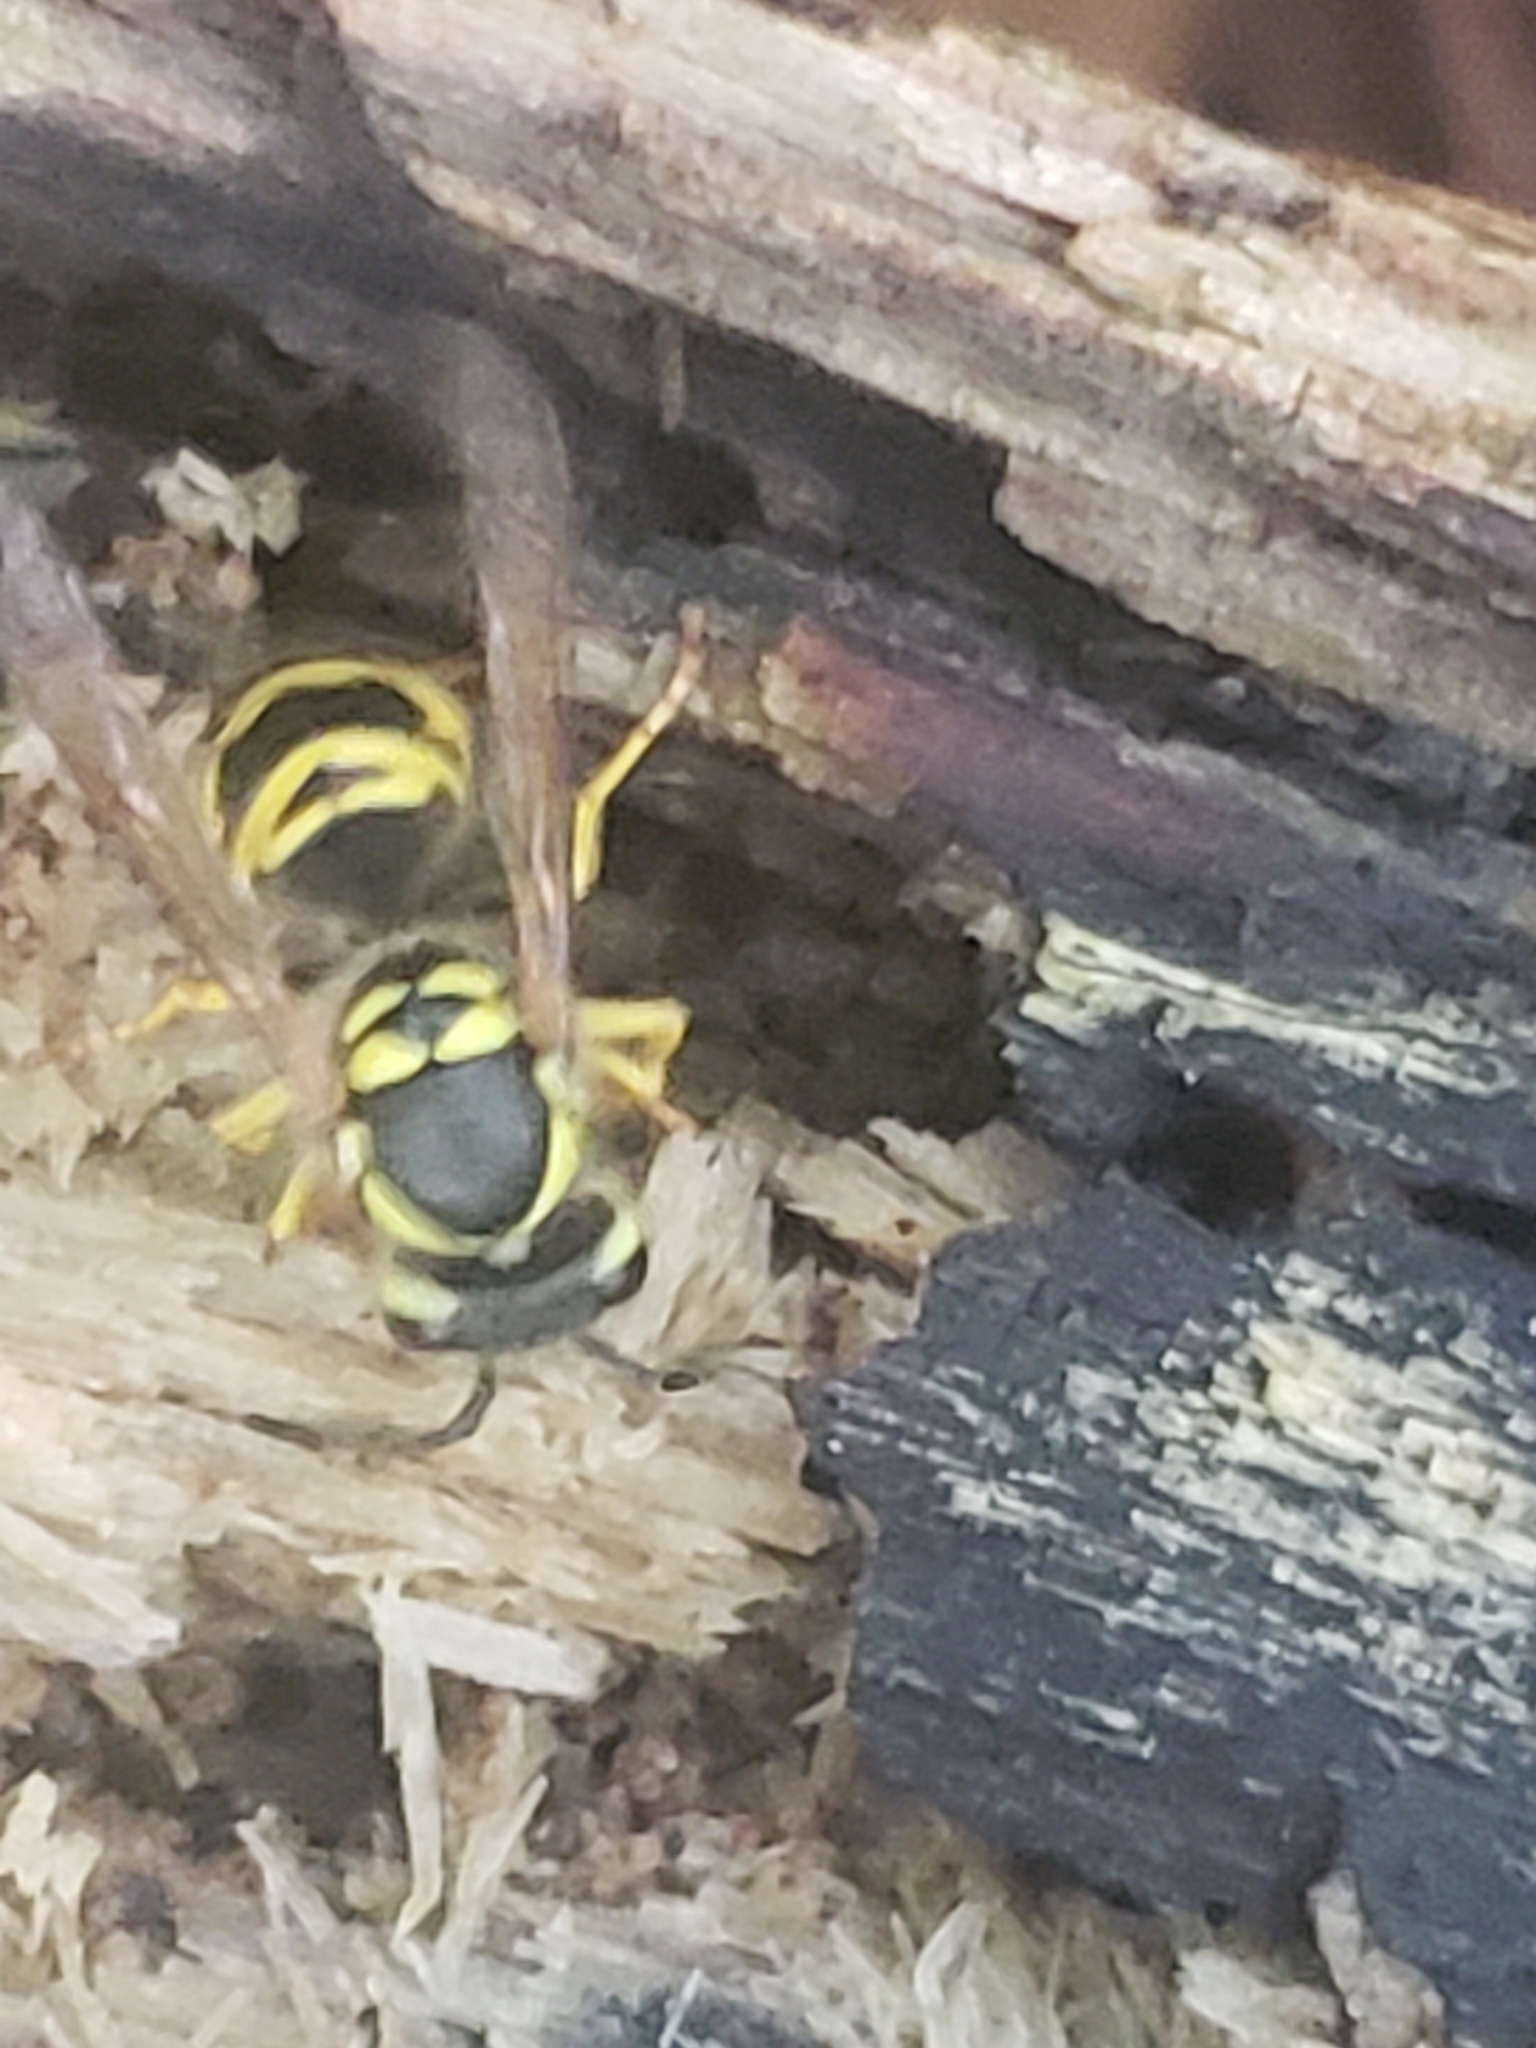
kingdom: Animalia
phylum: Arthropoda
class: Insecta
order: Hymenoptera
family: Vespidae
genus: Vespula
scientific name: Vespula maculifrons
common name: Eastern yellowjacket
